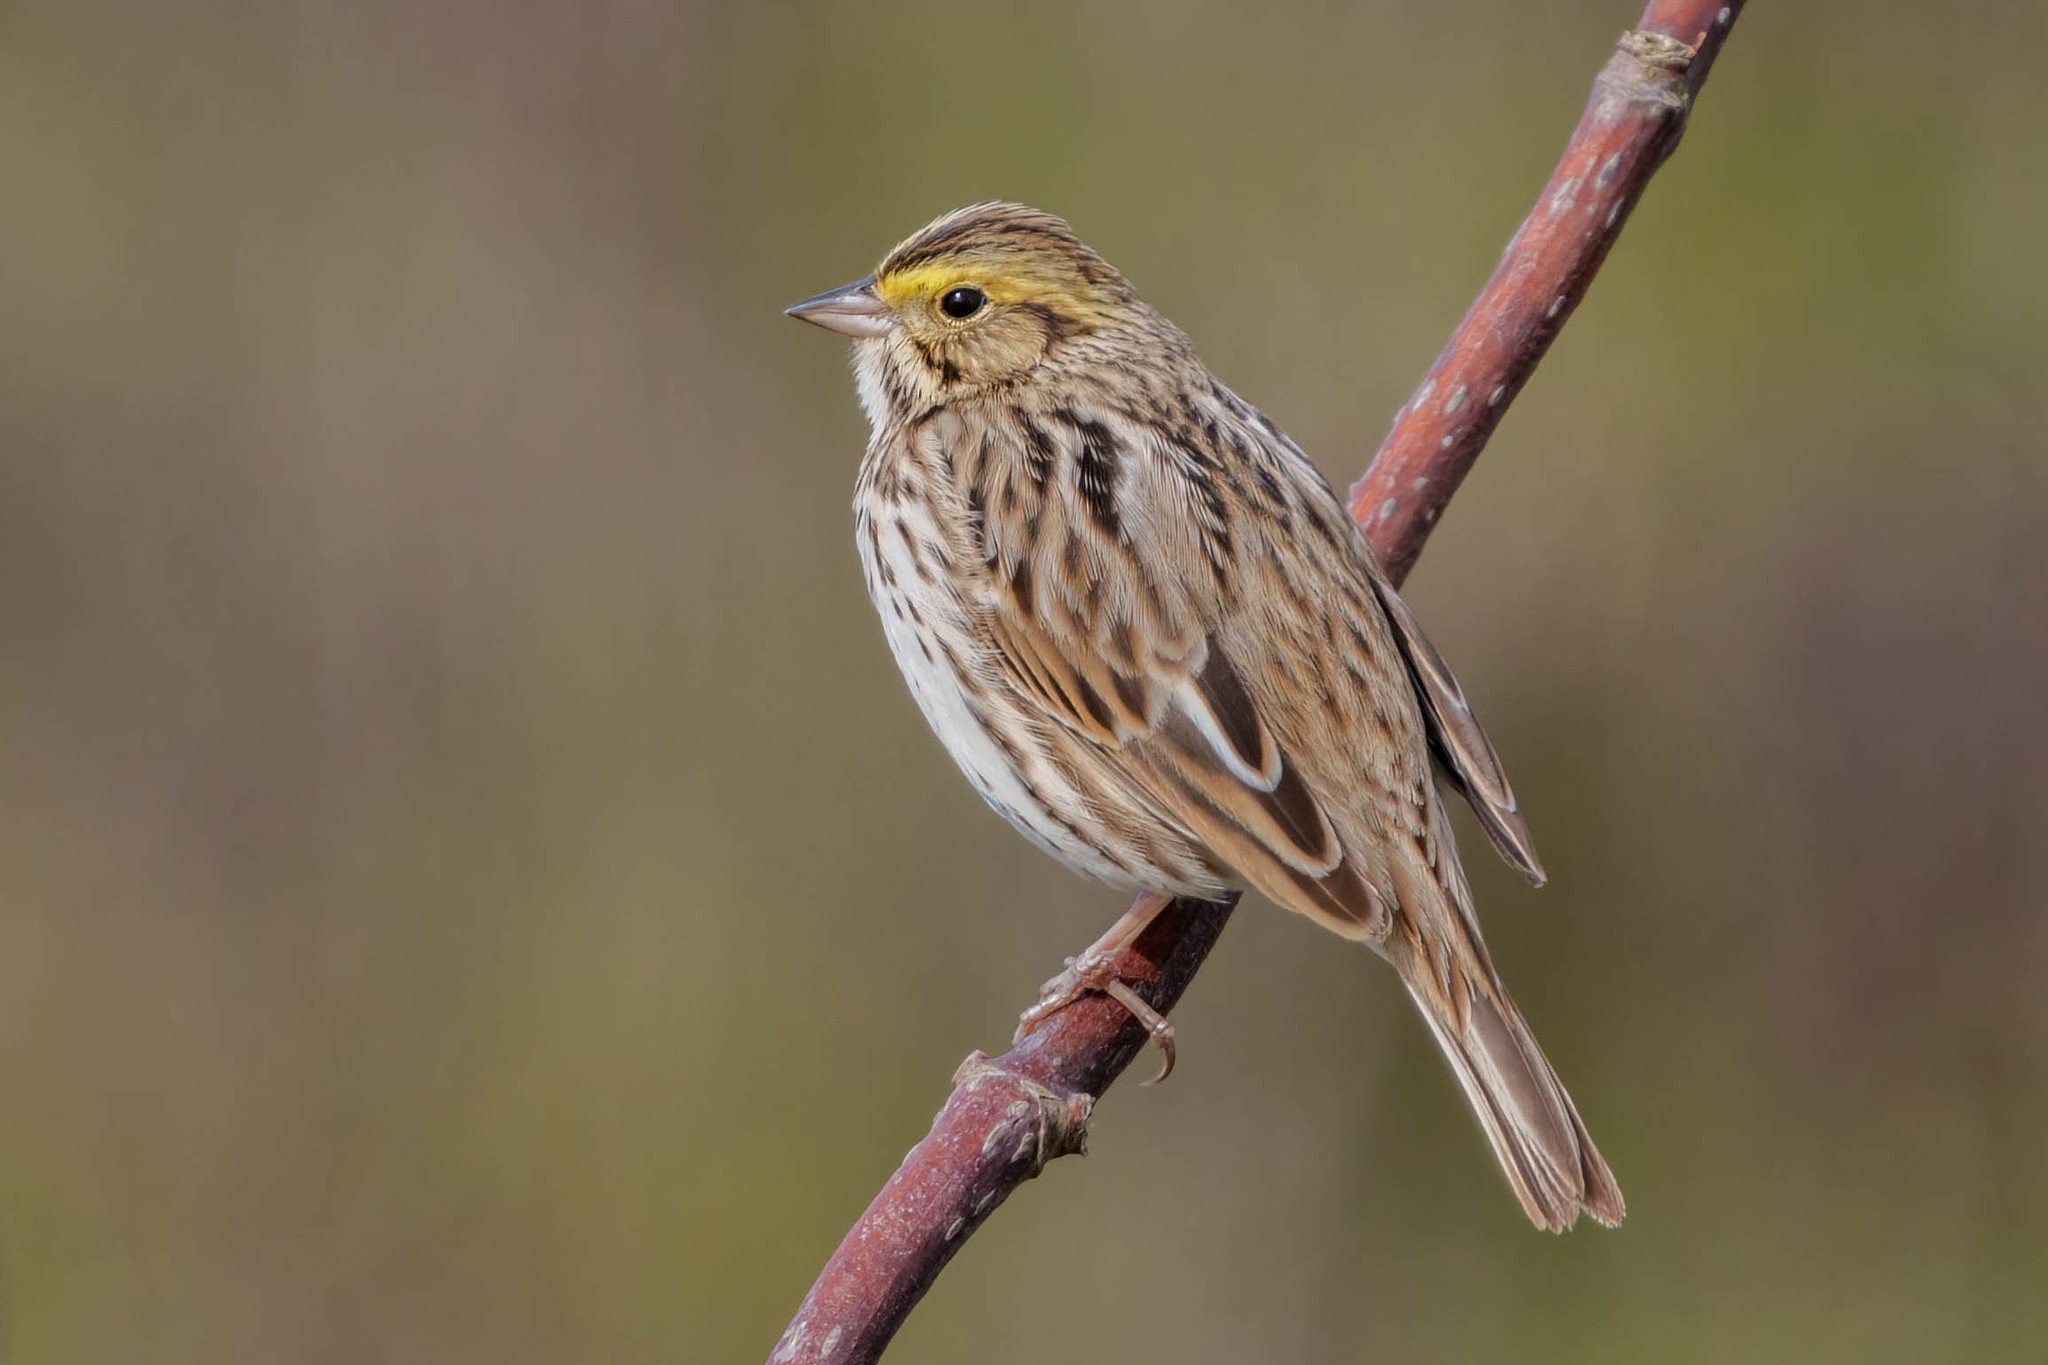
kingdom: Animalia
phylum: Chordata
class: Aves
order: Passeriformes
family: Passerellidae
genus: Passerculus
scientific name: Passerculus sandwichensis
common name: Savannah sparrow
